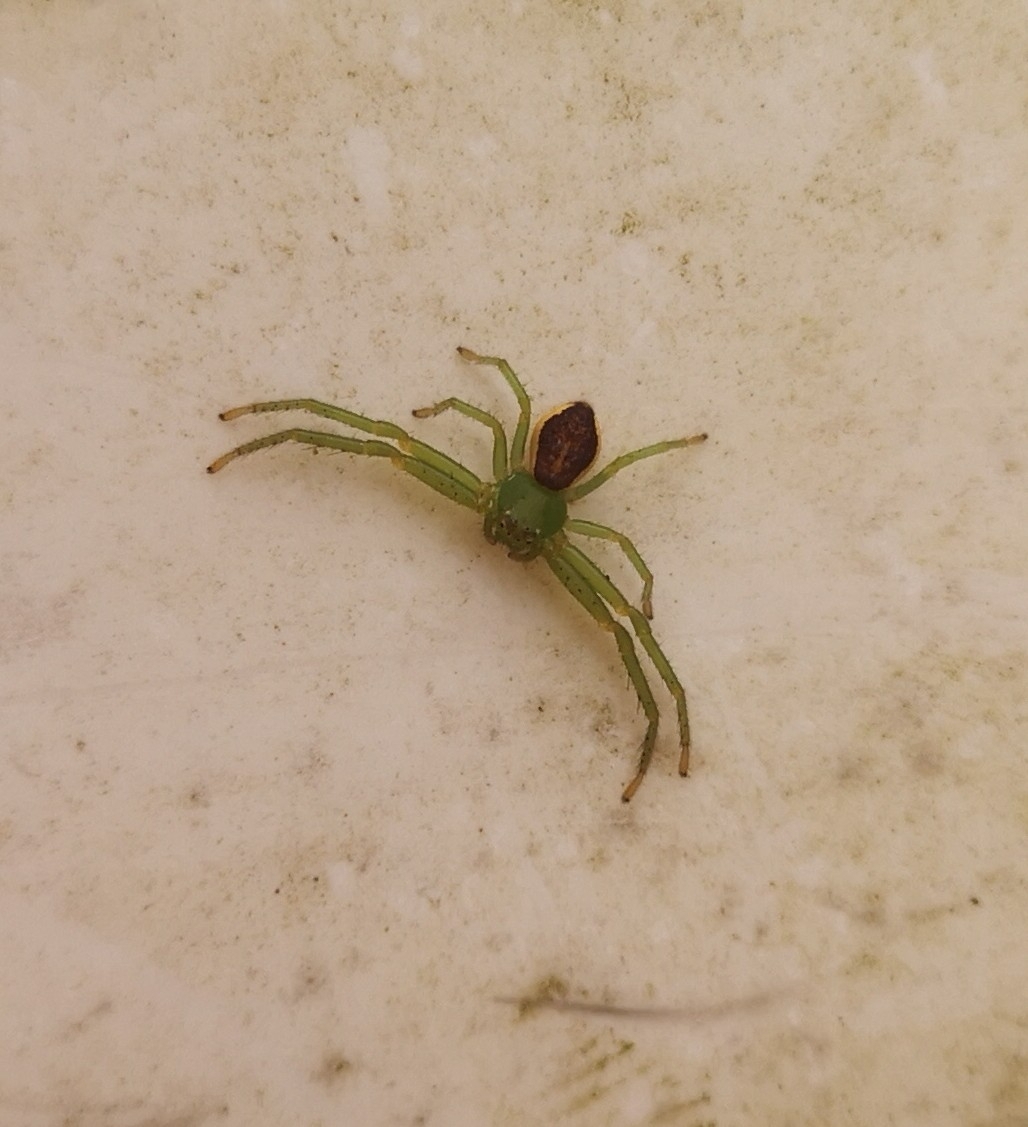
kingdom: Animalia
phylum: Arthropoda
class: Arachnida
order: Araneae
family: Thomisidae
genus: Diaea
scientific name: Diaea dorsata
